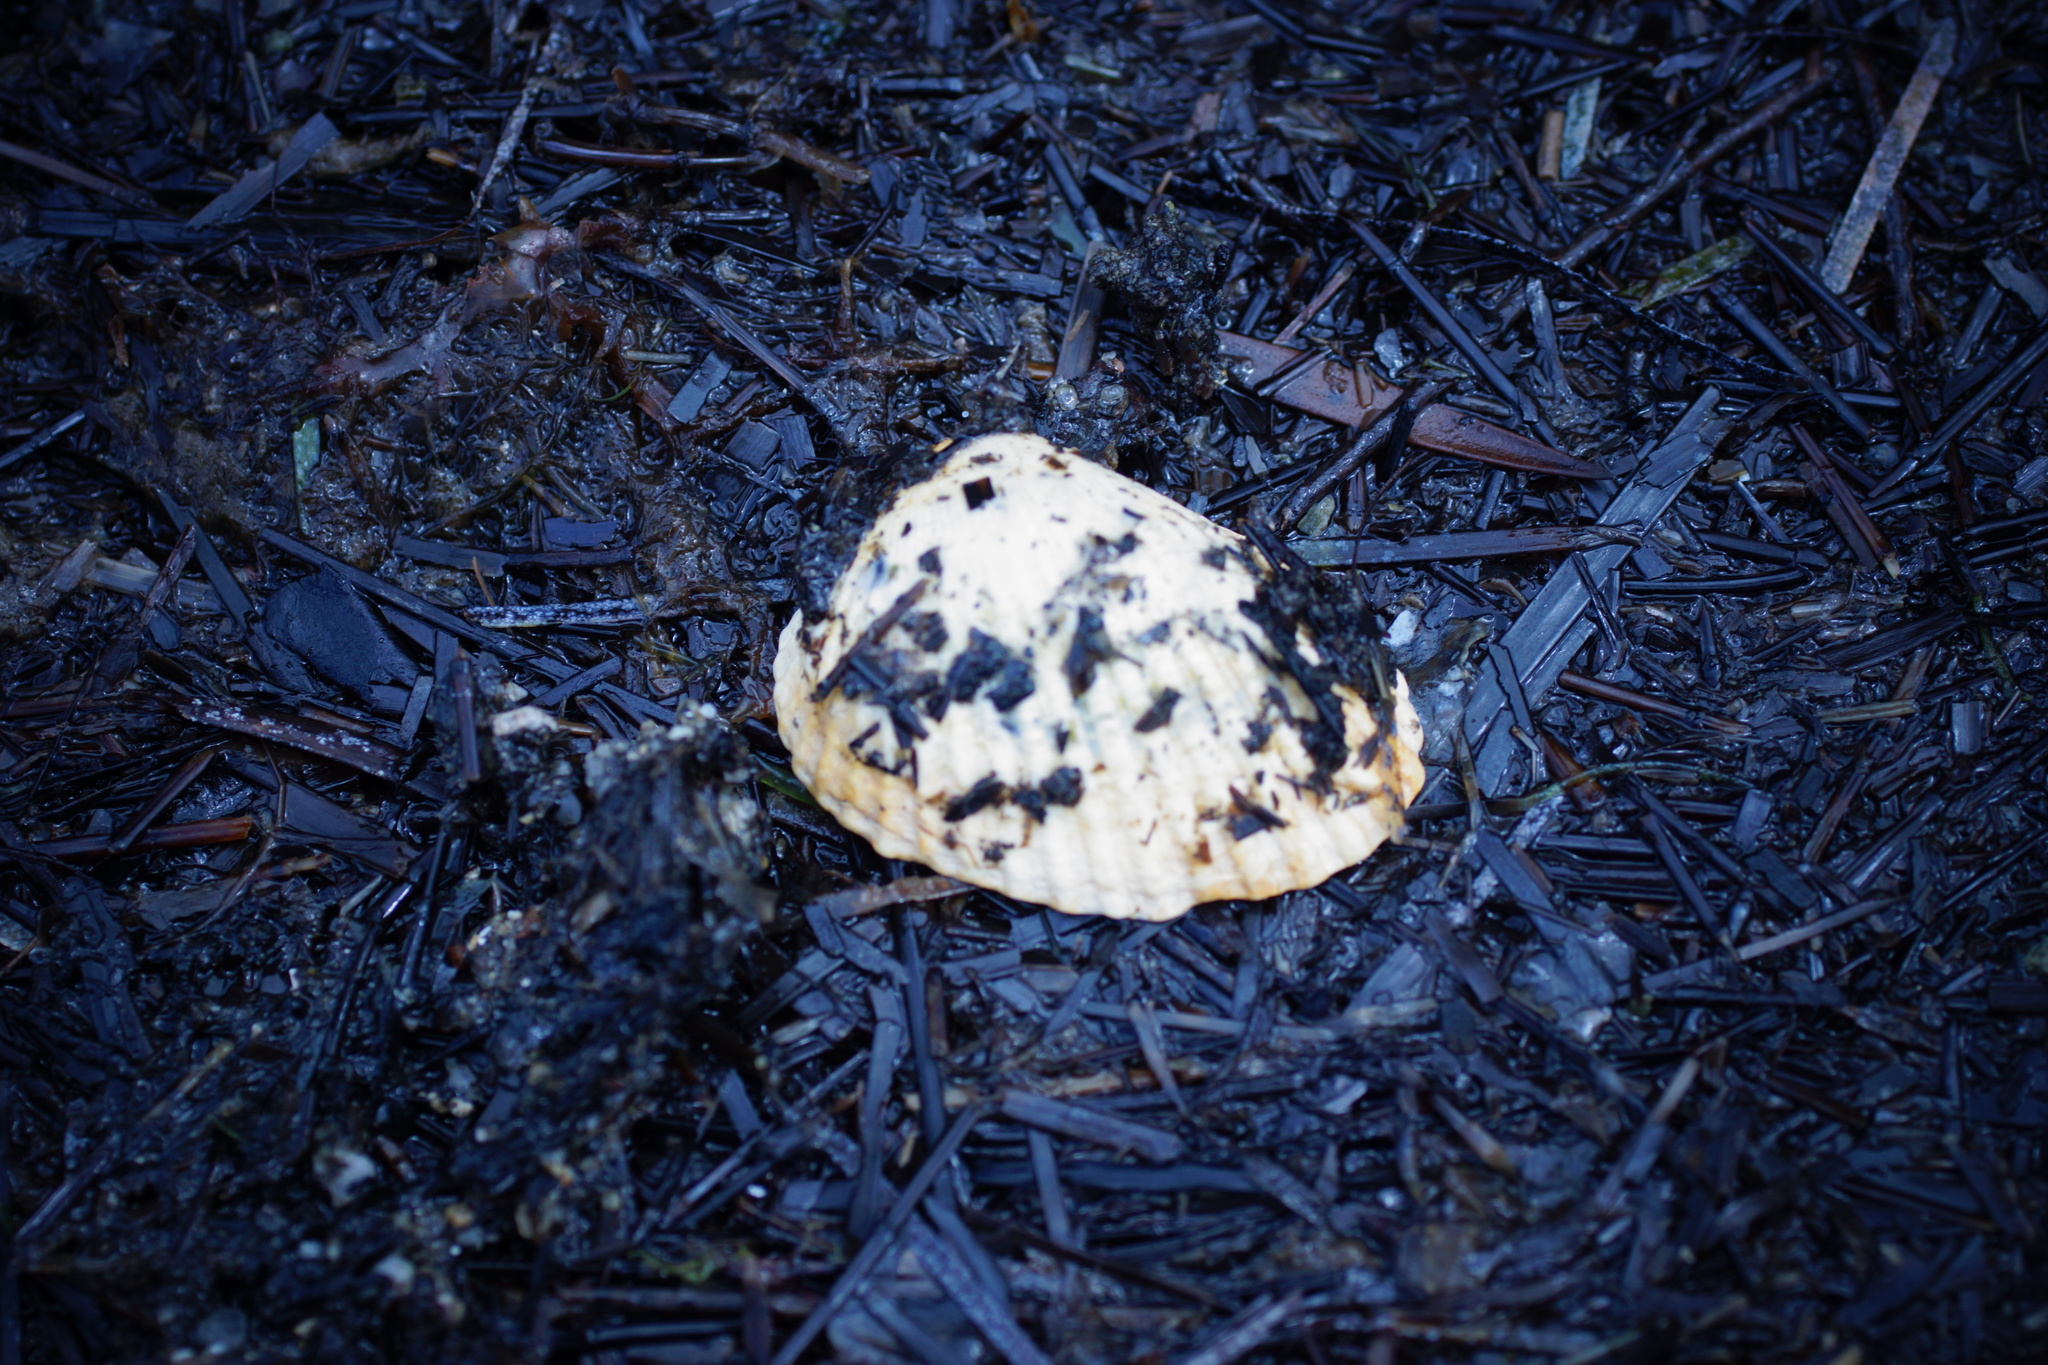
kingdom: Animalia
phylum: Mollusca
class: Bivalvia
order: Arcida
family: Arcidae
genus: Anadara
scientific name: Anadara trapezia
